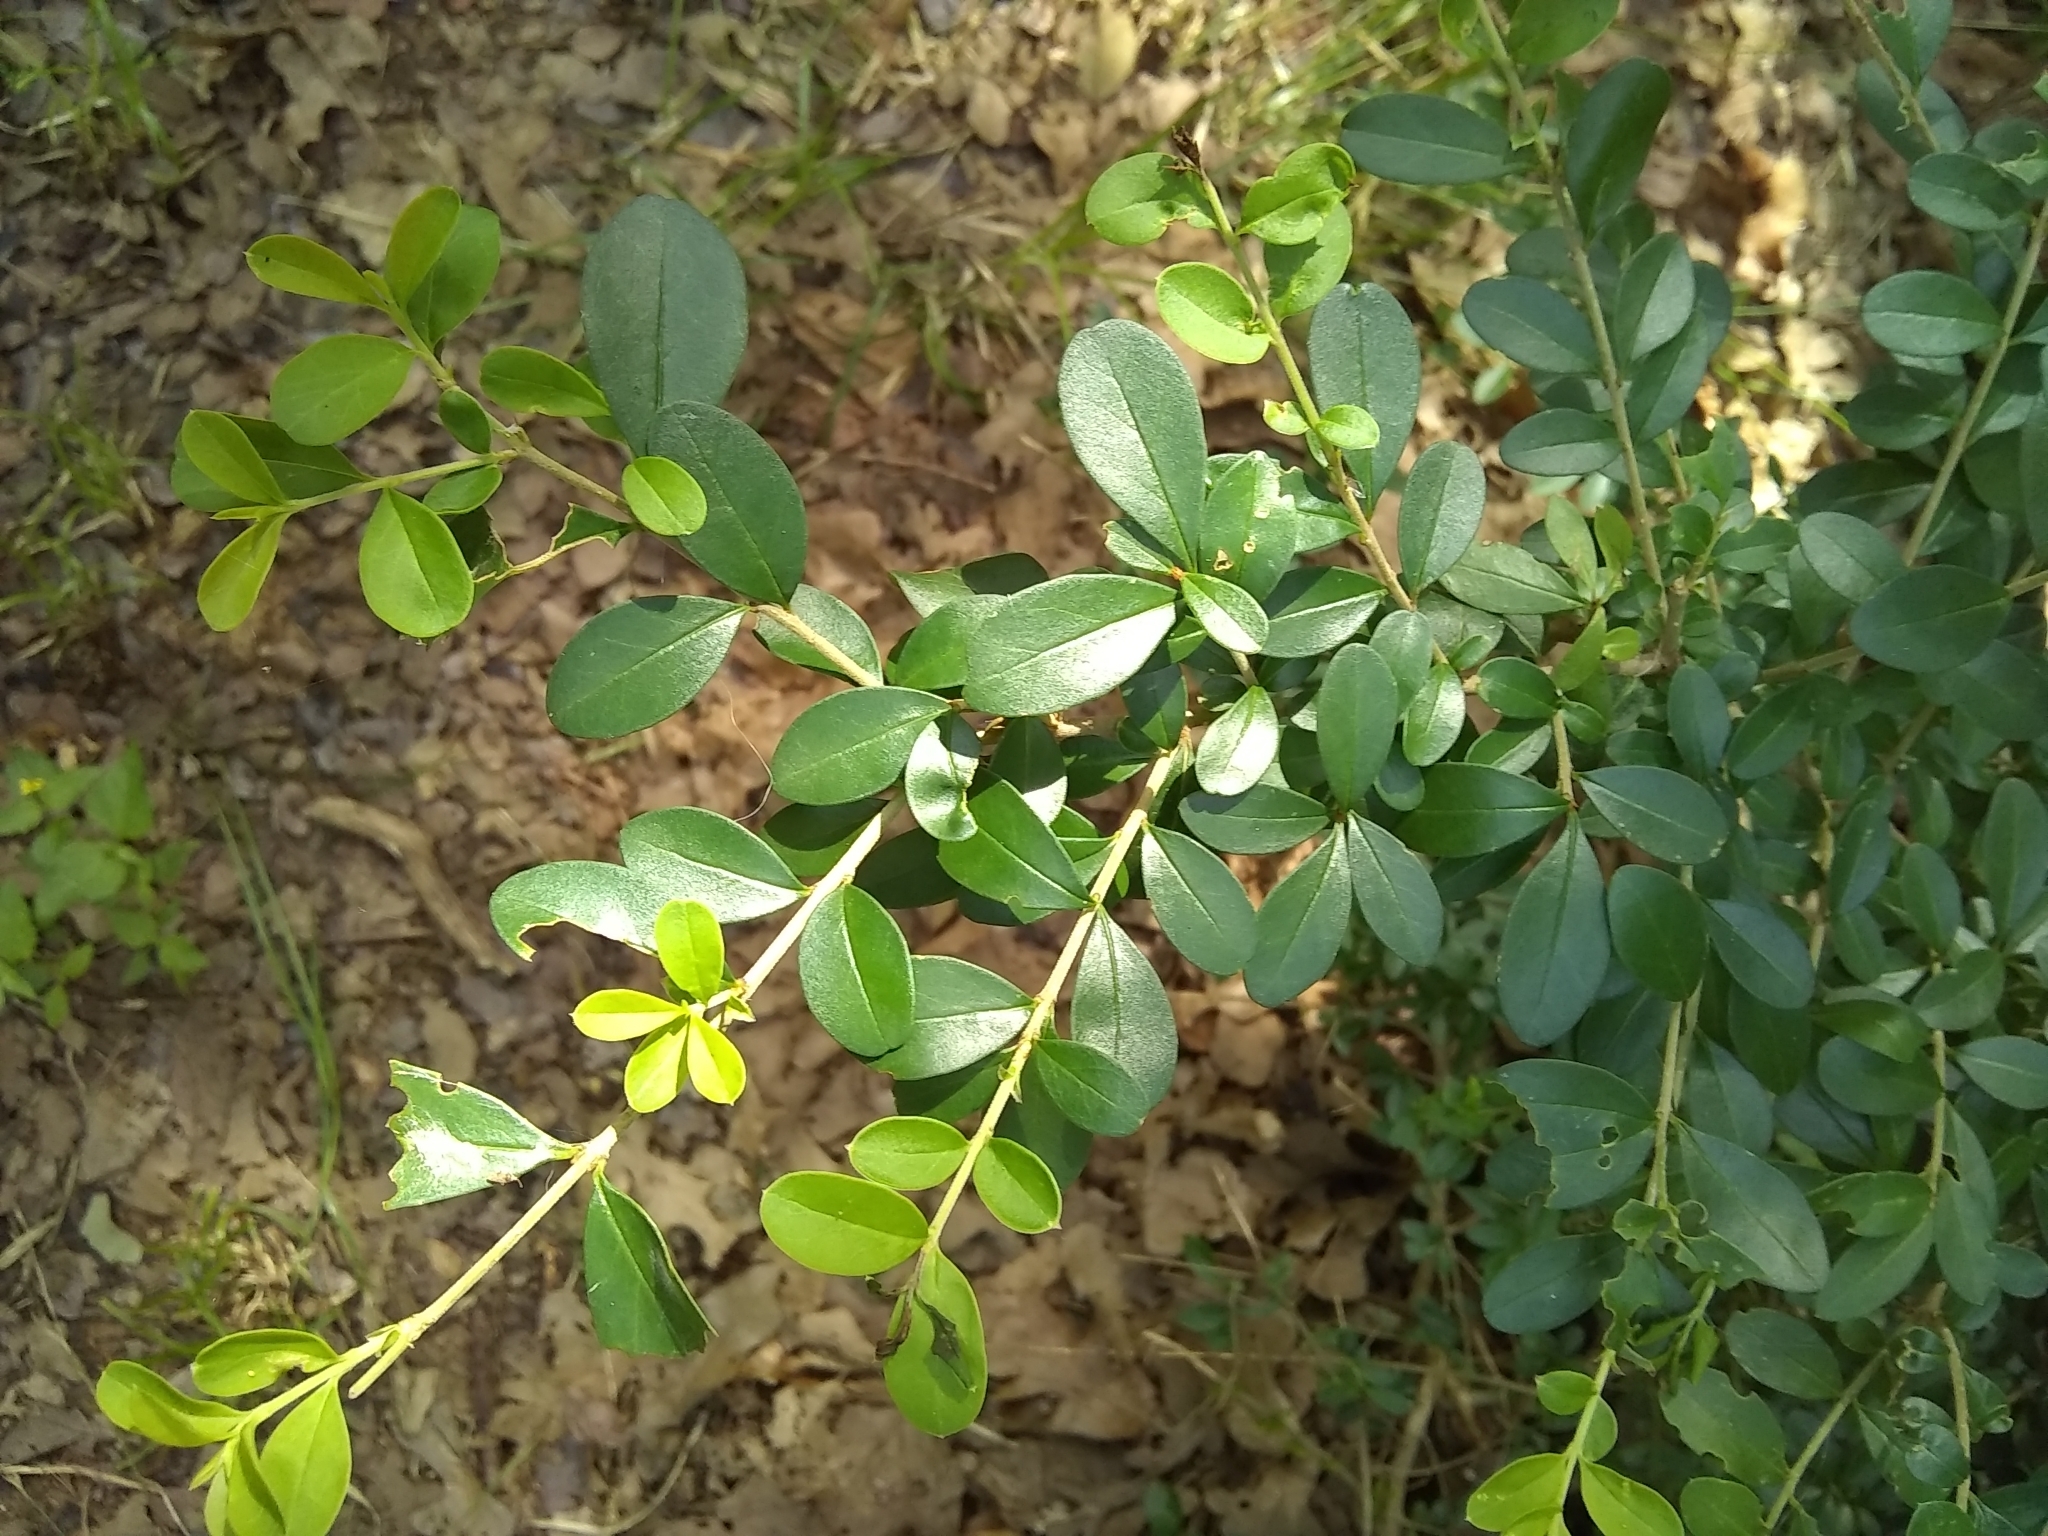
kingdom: Plantae
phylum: Tracheophyta
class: Magnoliopsida
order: Lamiales
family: Oleaceae
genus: Ligustrum
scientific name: Ligustrum quihoui
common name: Waxyleaf privet
